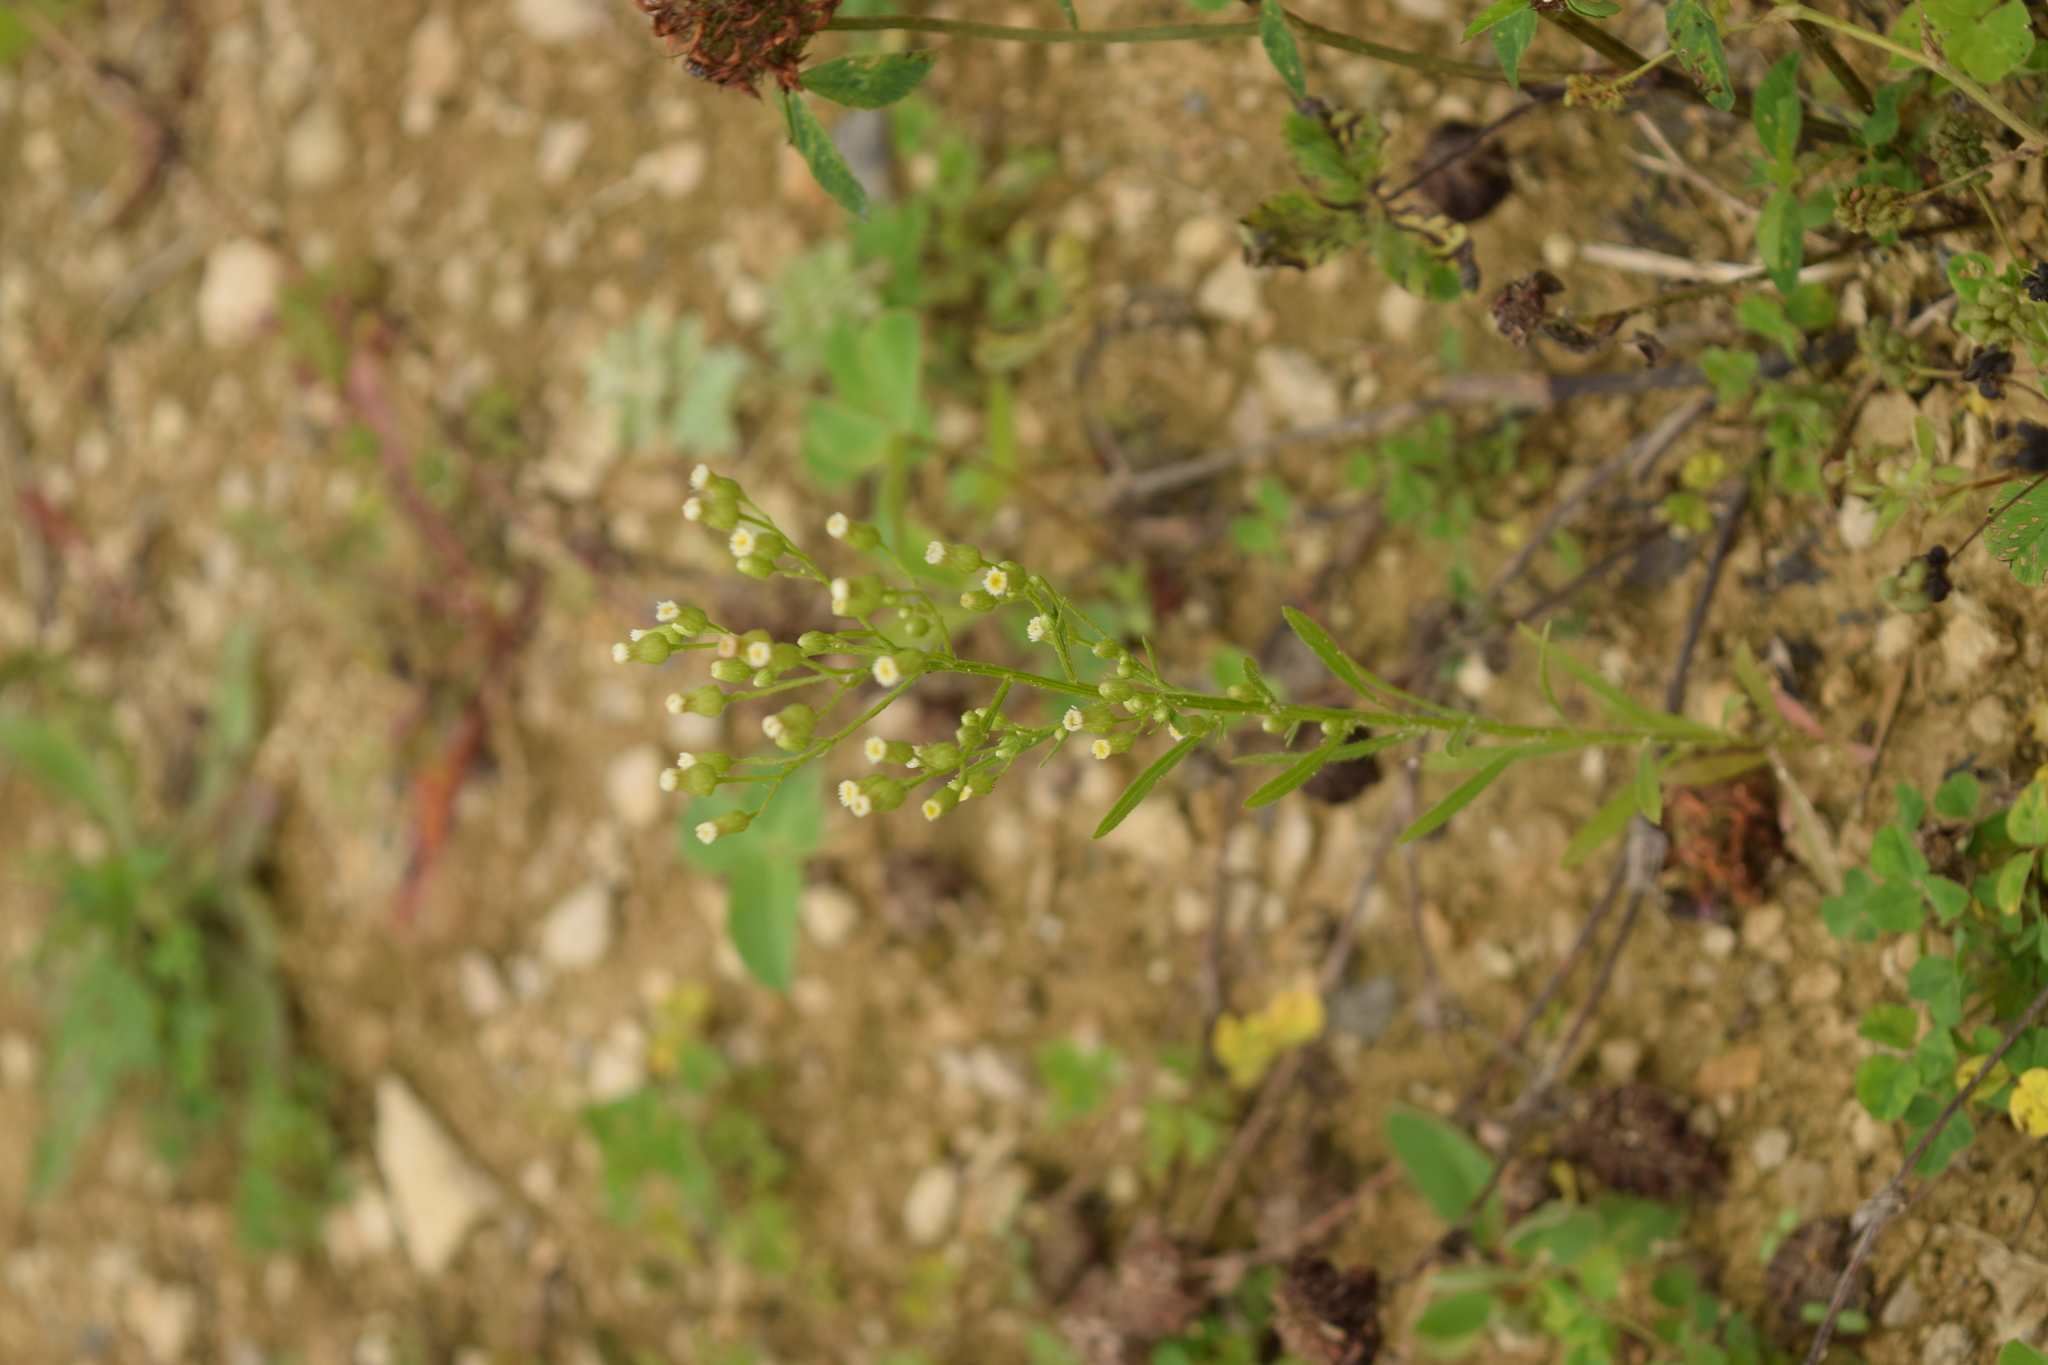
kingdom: Plantae
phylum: Tracheophyta
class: Magnoliopsida
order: Asterales
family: Asteraceae
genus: Erigeron
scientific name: Erigeron canadensis
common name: Canadian fleabane
